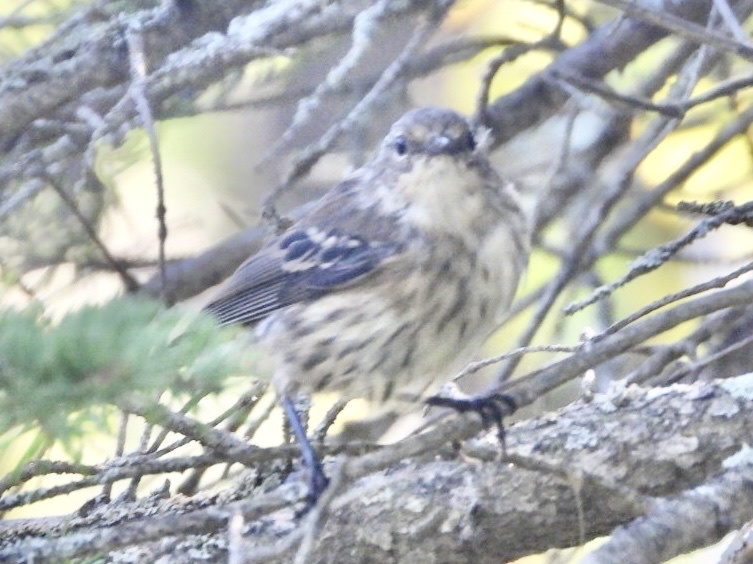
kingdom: Animalia
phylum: Chordata
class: Aves
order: Passeriformes
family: Parulidae
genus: Setophaga
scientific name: Setophaga coronata
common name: Myrtle warbler
